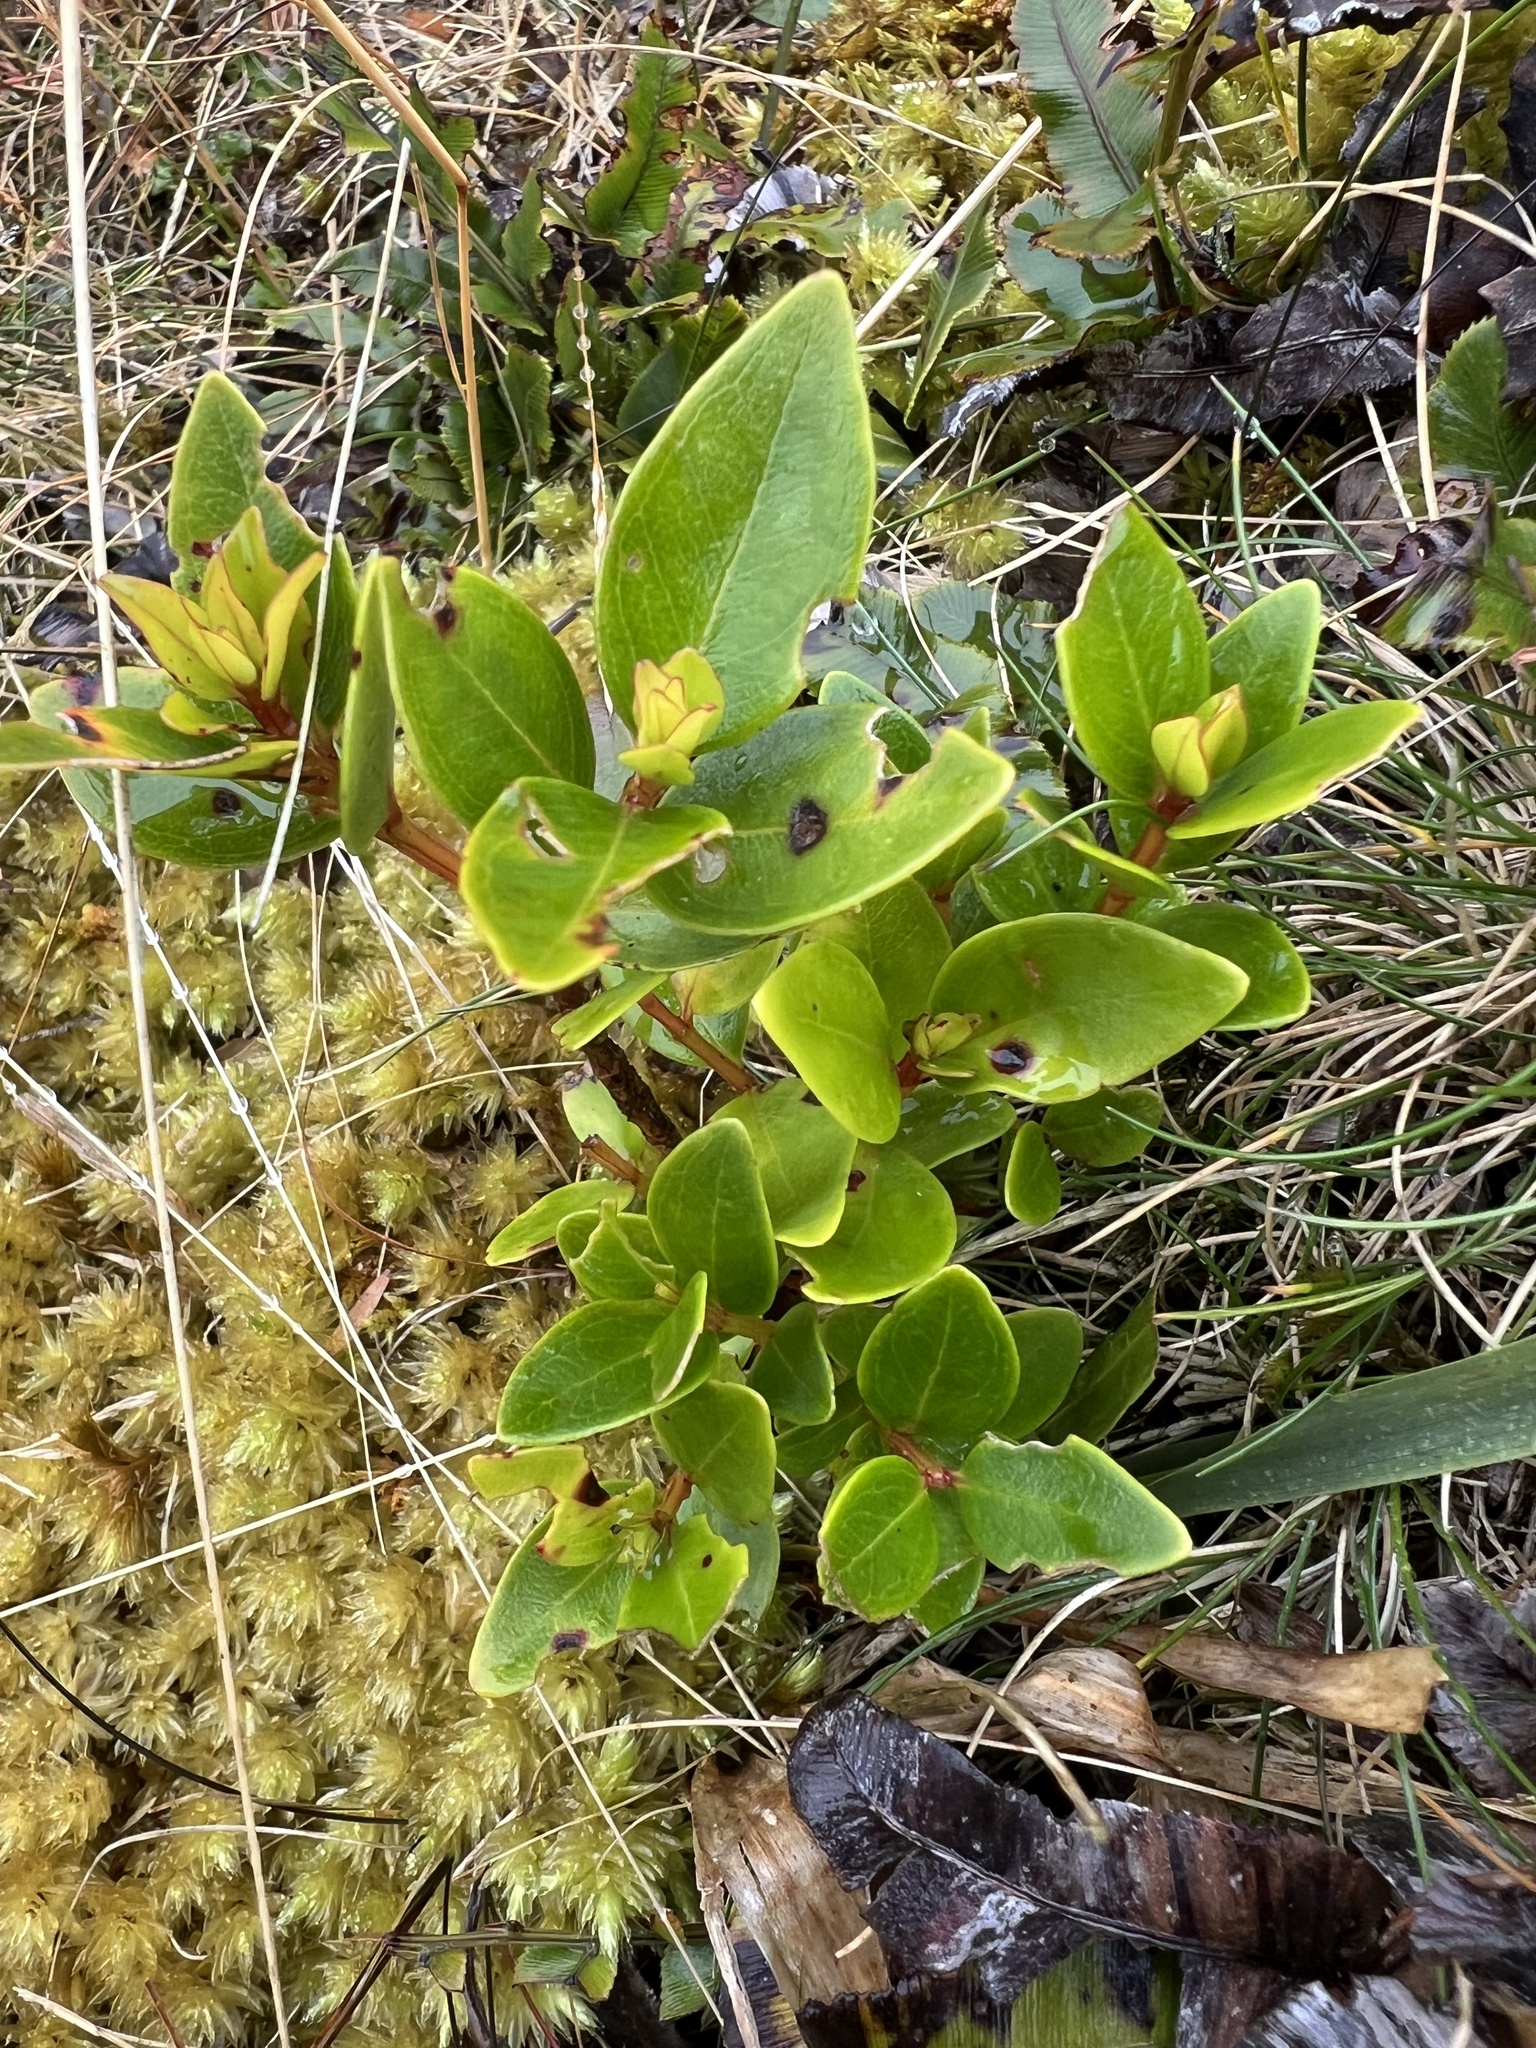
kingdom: Plantae
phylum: Tracheophyta
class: Magnoliopsida
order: Myrtales
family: Myrtaceae
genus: Metrosideros
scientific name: Metrosideros robusta
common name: Northern rata
